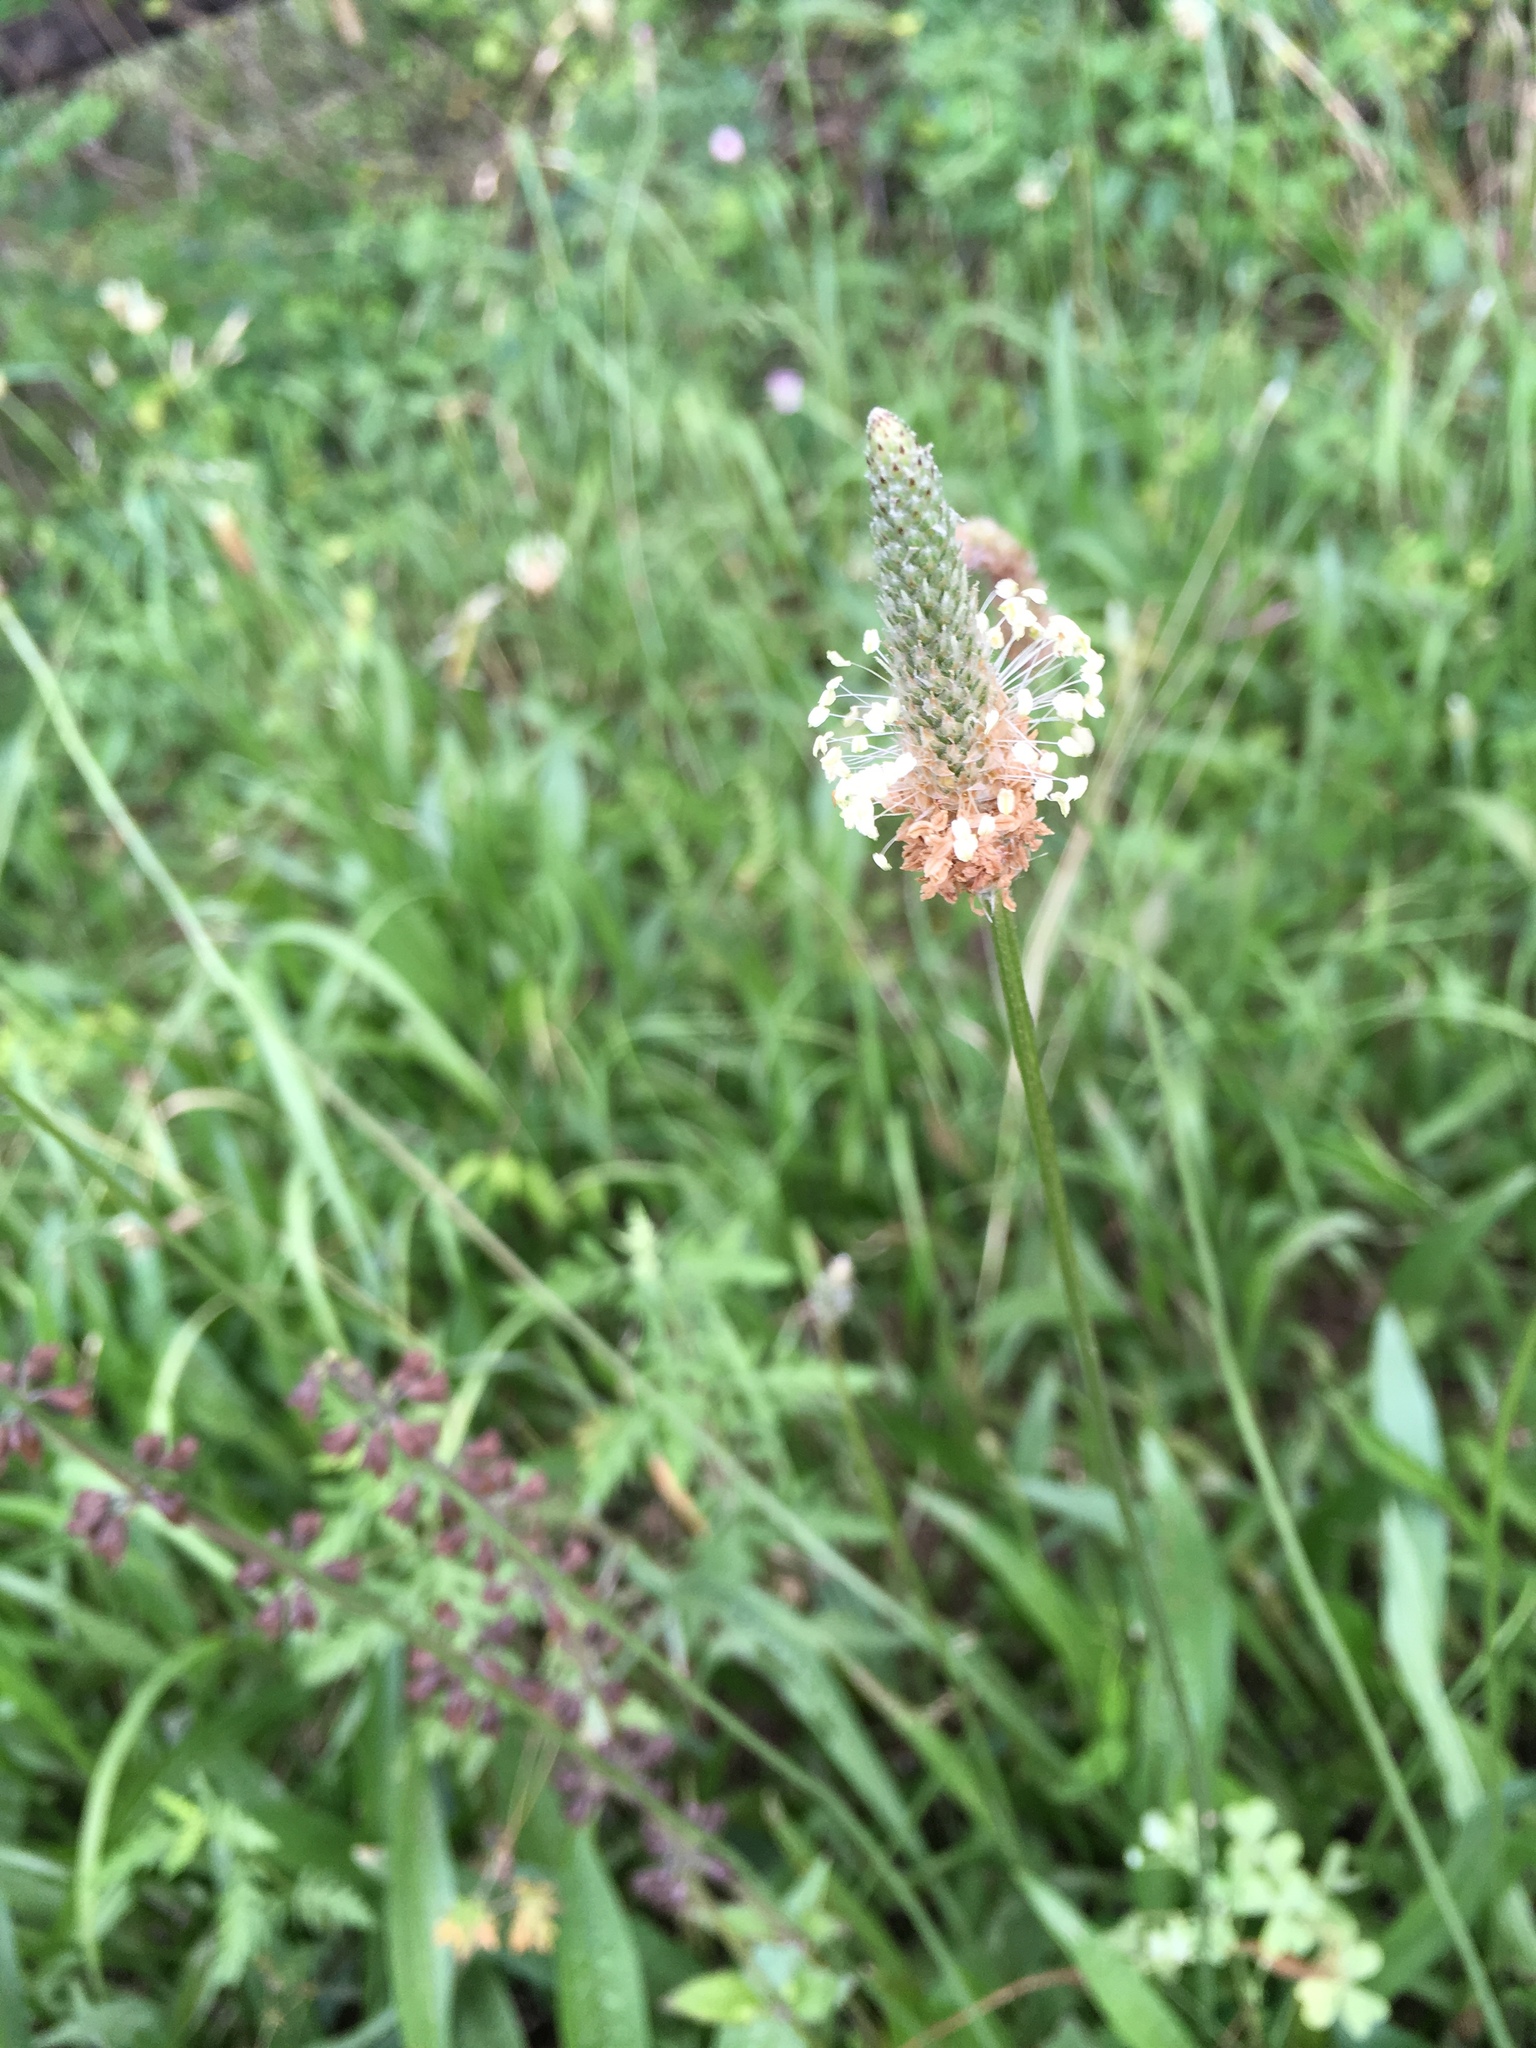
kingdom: Plantae
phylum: Tracheophyta
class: Magnoliopsida
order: Lamiales
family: Plantaginaceae
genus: Plantago
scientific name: Plantago lanceolata
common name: Ribwort plantain
